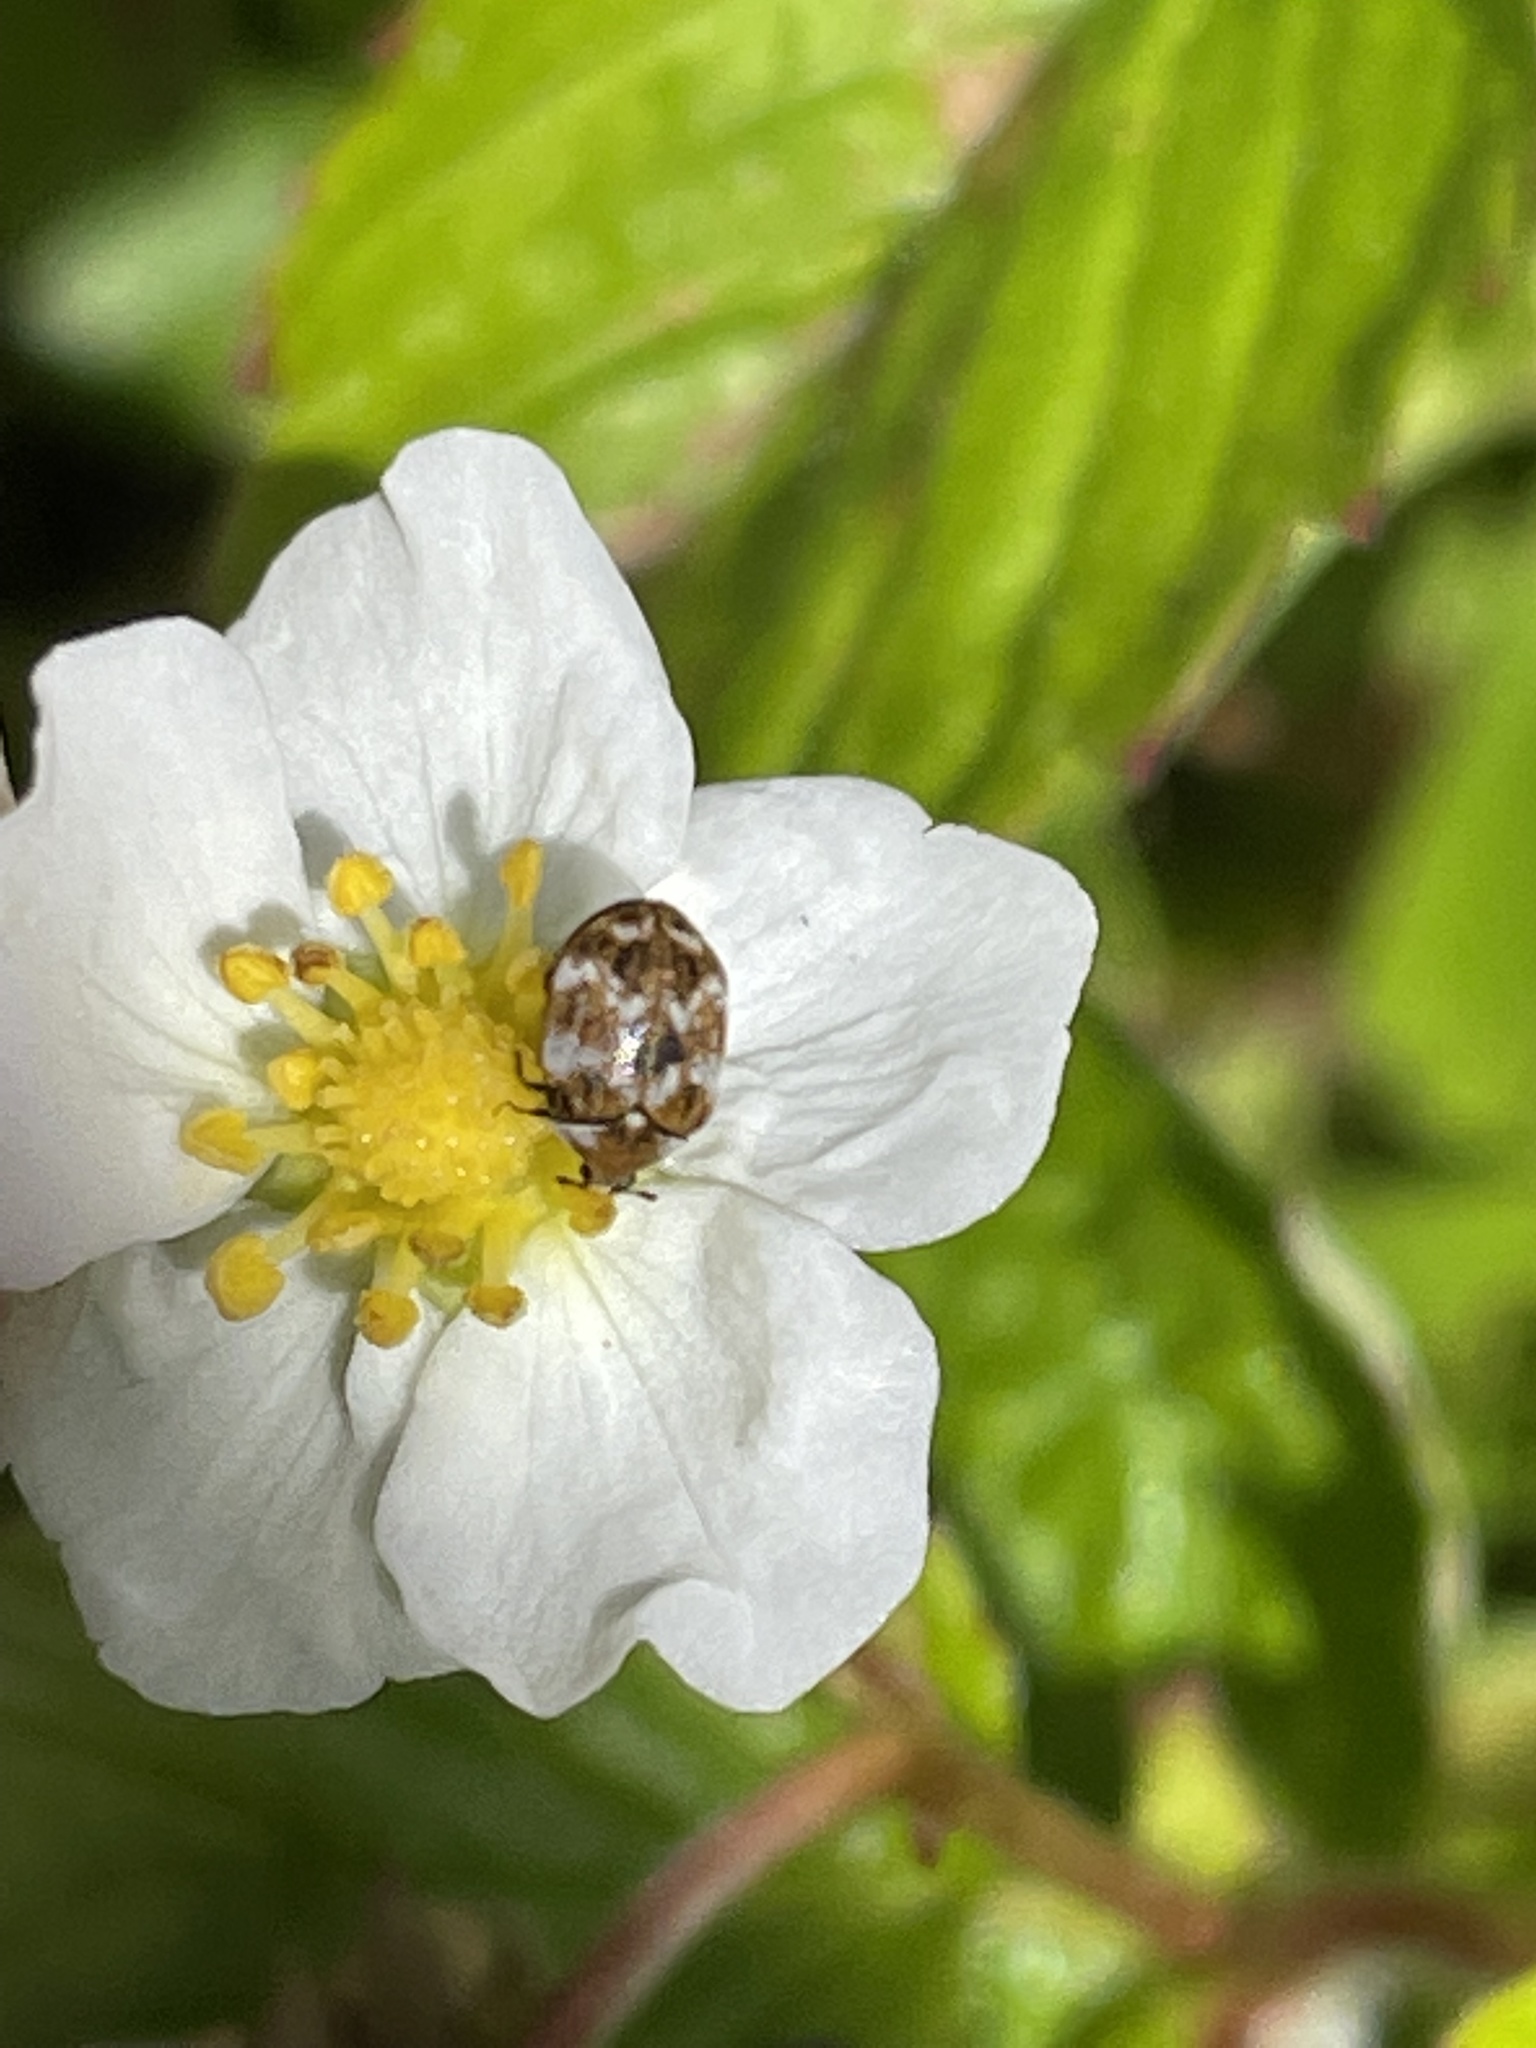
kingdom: Animalia
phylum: Arthropoda
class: Insecta
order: Coleoptera
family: Dermestidae
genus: Anthrenus
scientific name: Anthrenus verbasci
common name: Varied carpet beetle
